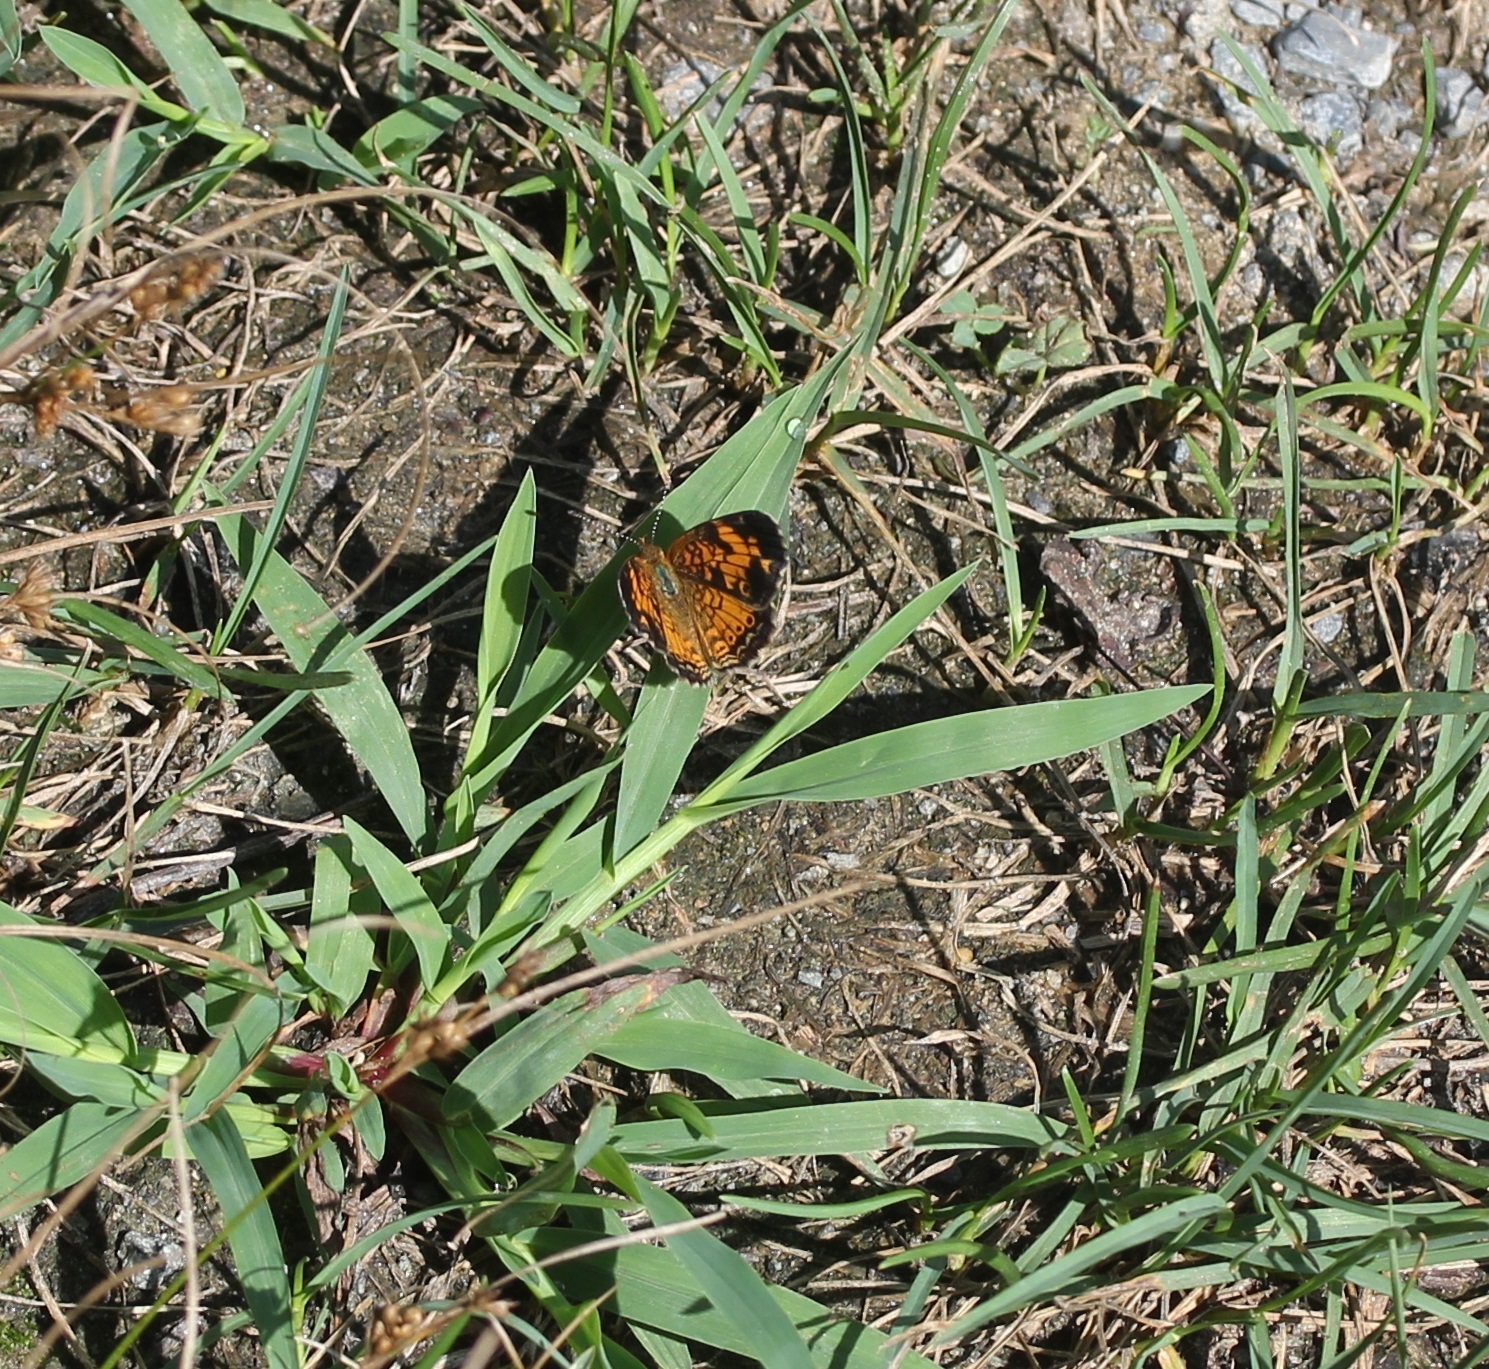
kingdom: Animalia
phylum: Arthropoda
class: Insecta
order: Lepidoptera
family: Nymphalidae
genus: Phyciodes
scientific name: Phyciodes tharos
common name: Pearl crescent
